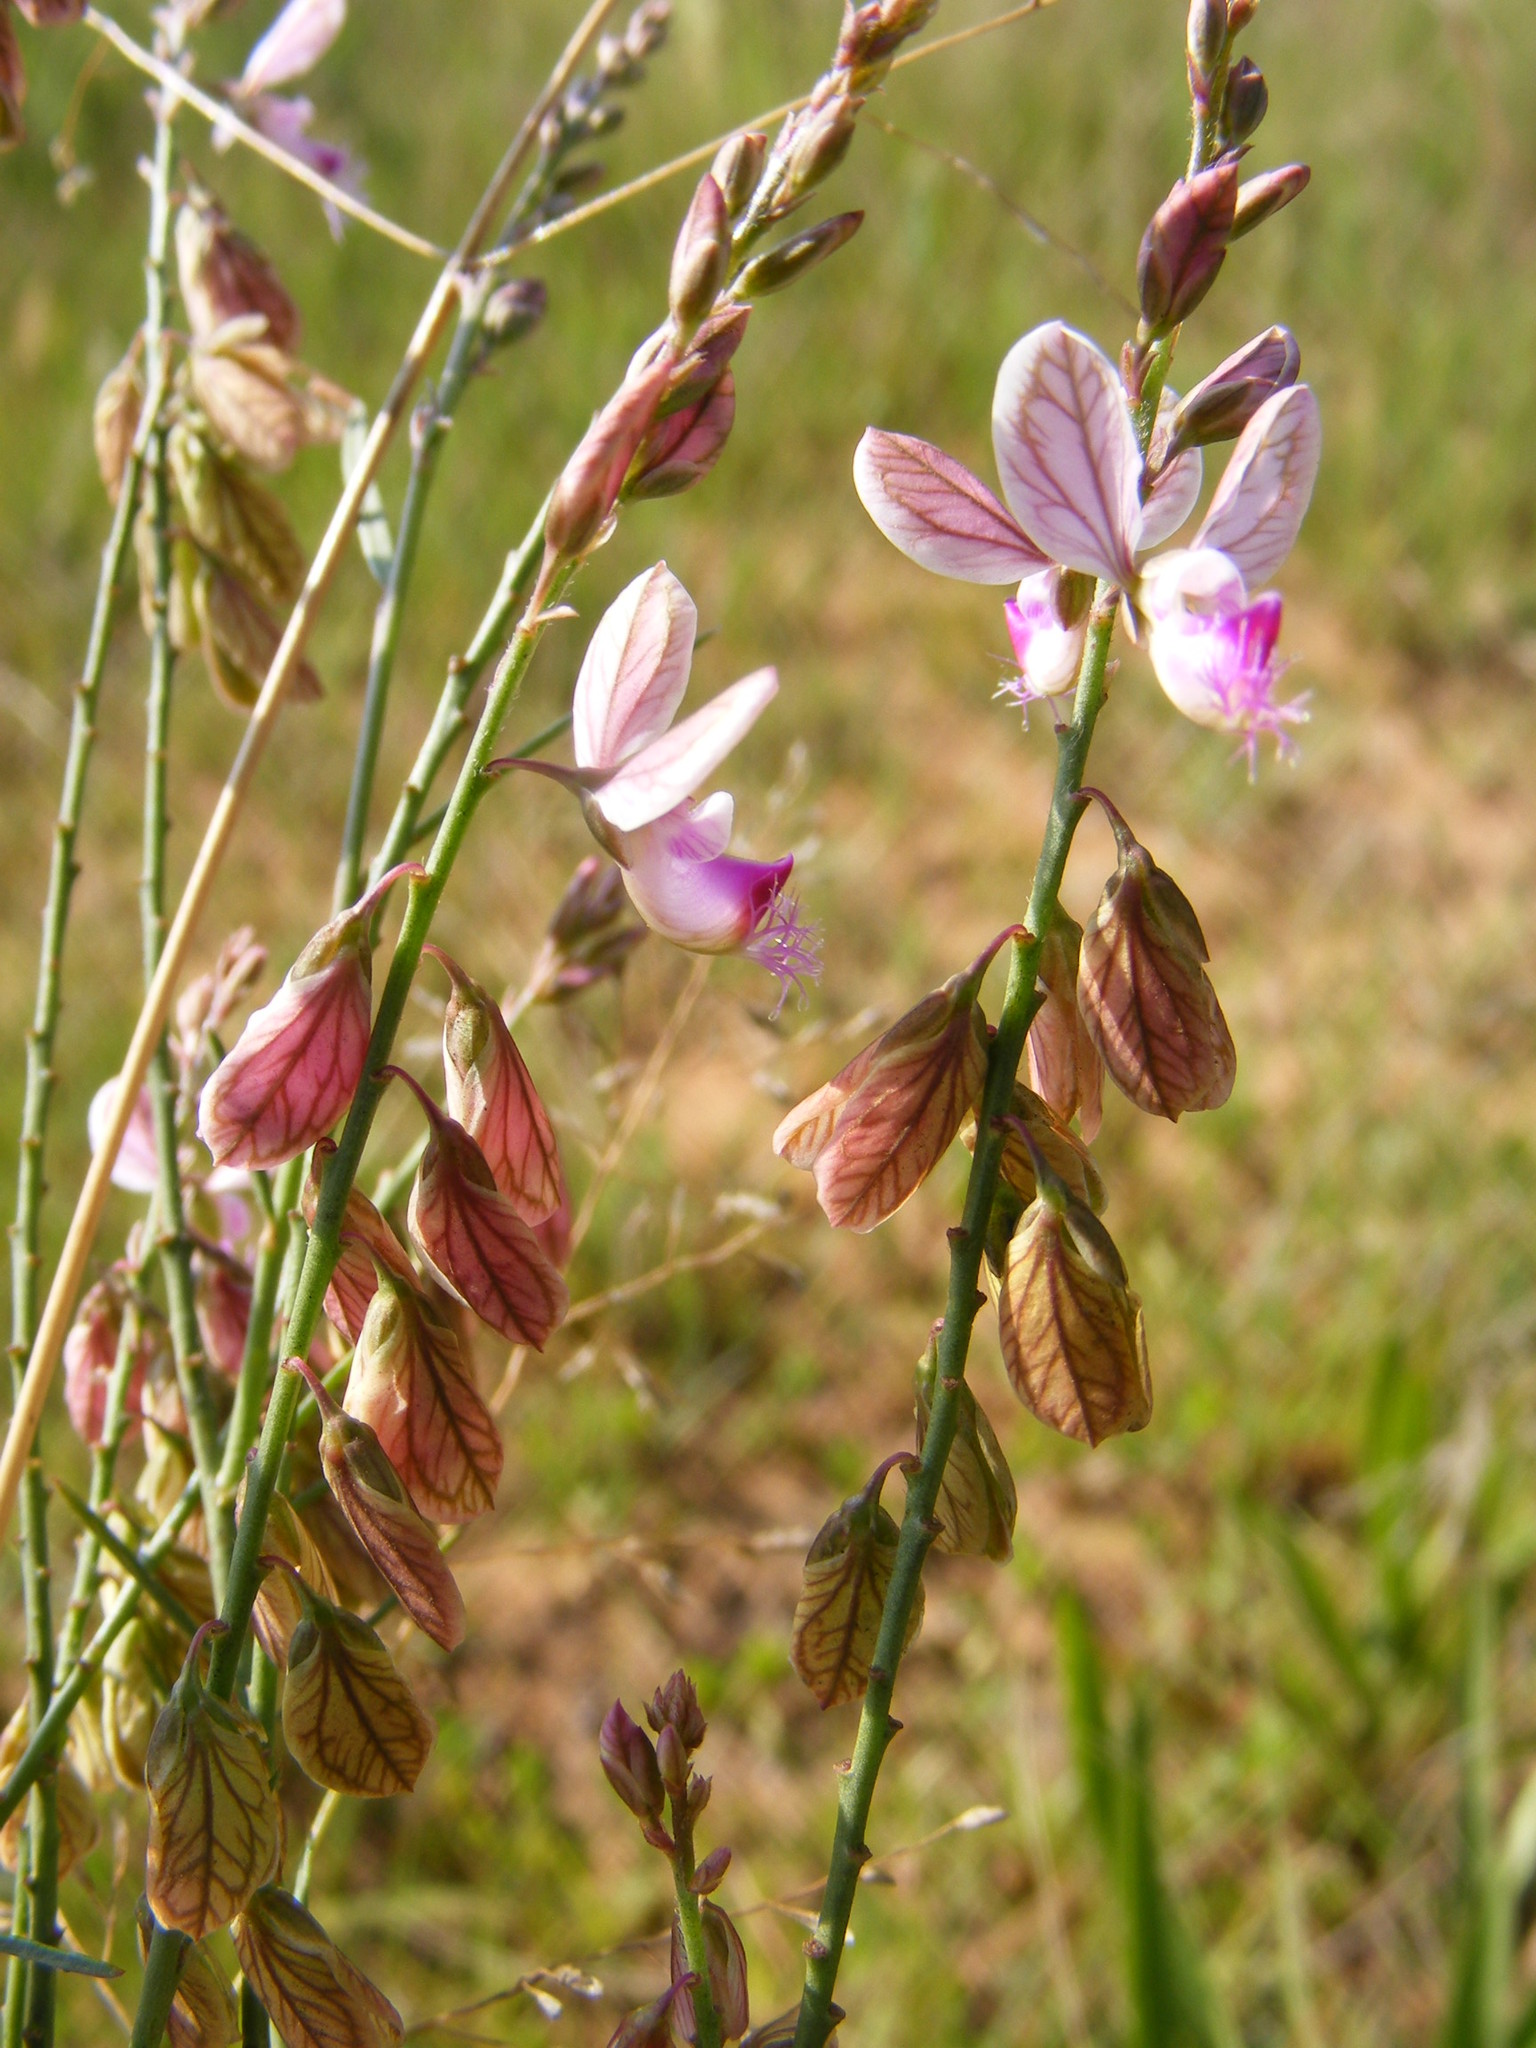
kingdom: Plantae
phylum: Tracheophyta
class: Magnoliopsida
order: Fabales
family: Polygalaceae
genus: Polygala
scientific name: Polygala hottentotta
